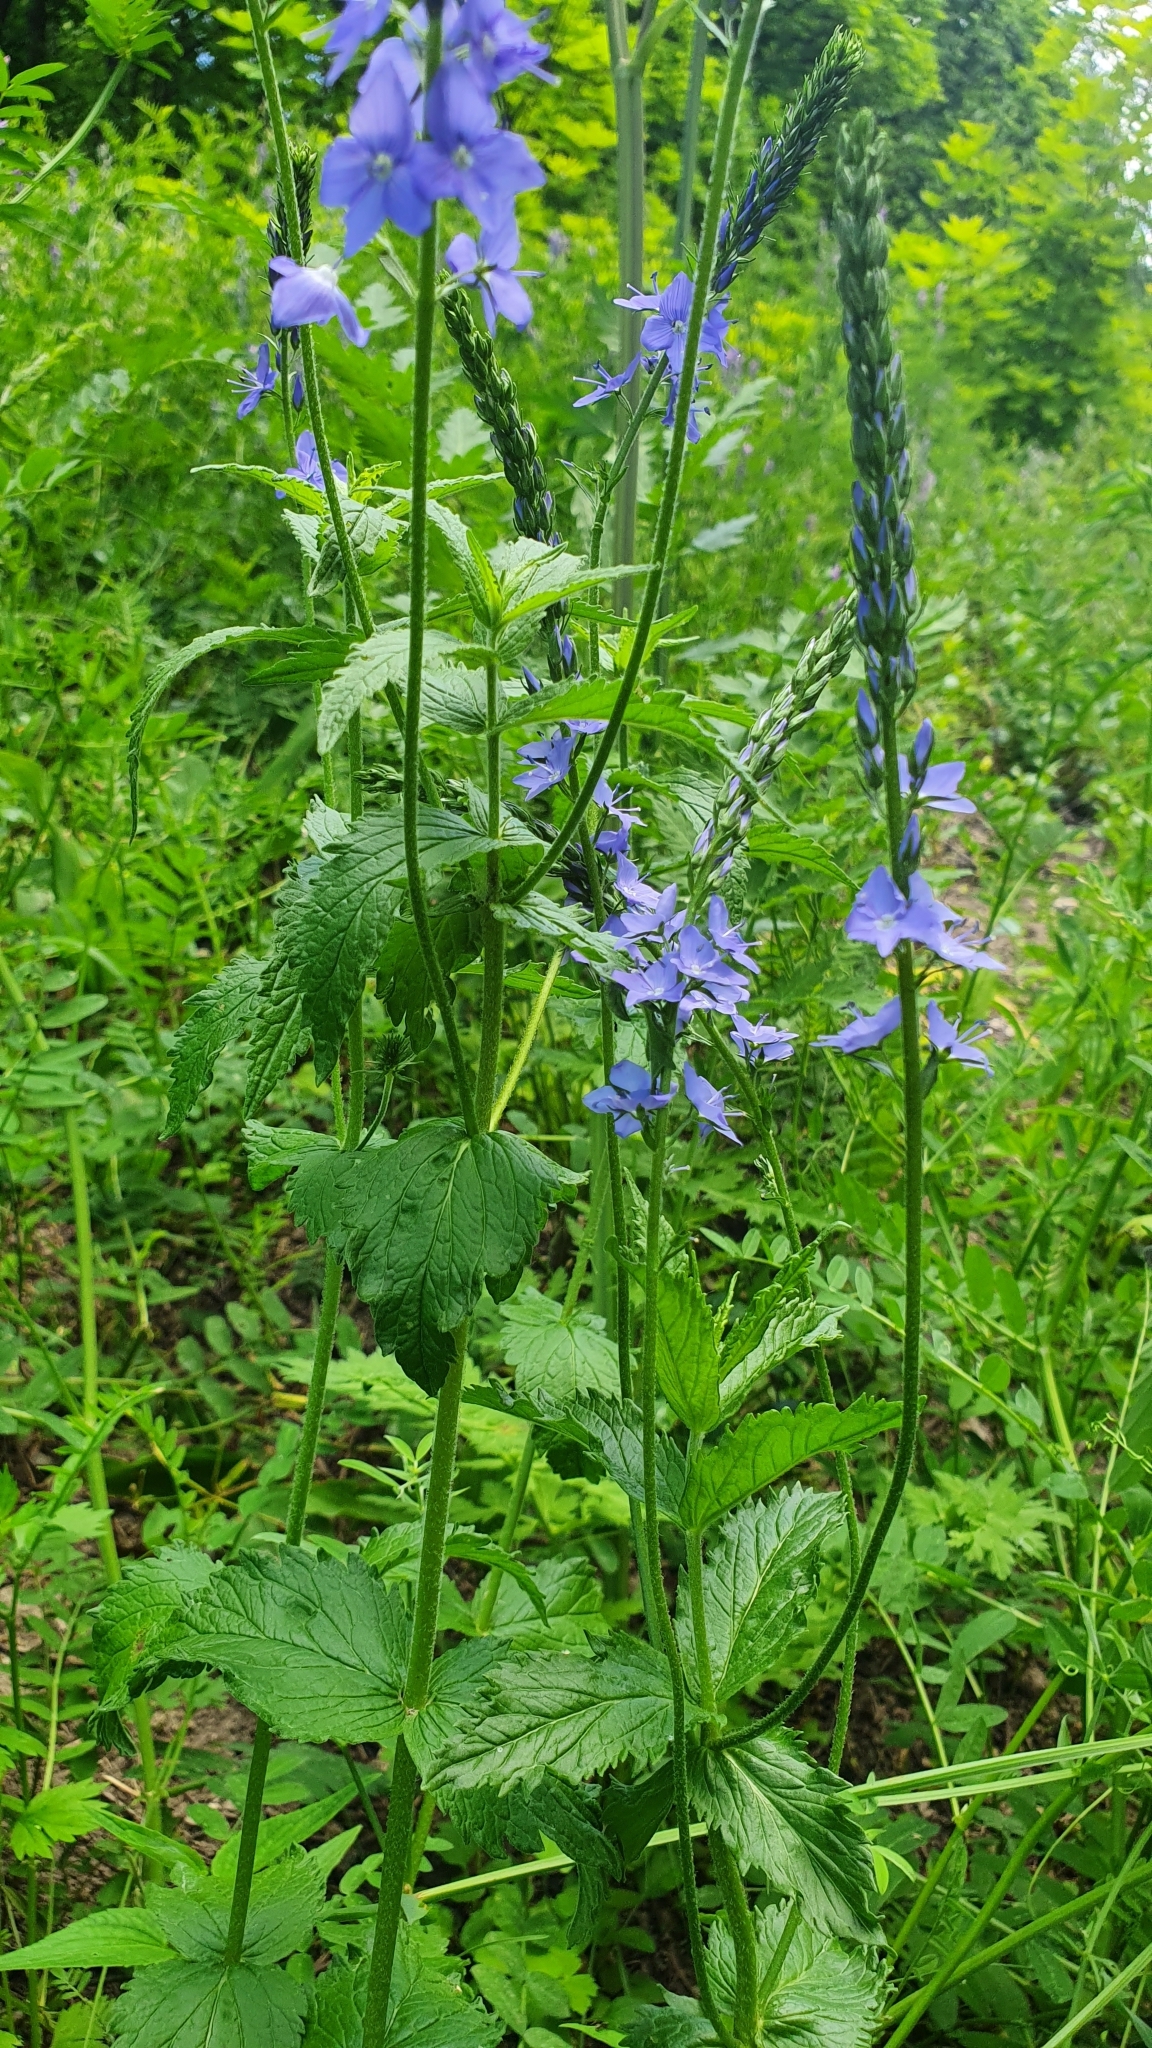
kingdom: Plantae
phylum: Tracheophyta
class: Magnoliopsida
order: Lamiales
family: Plantaginaceae
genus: Veronica
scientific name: Veronica teucrium
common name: Large speedwell
